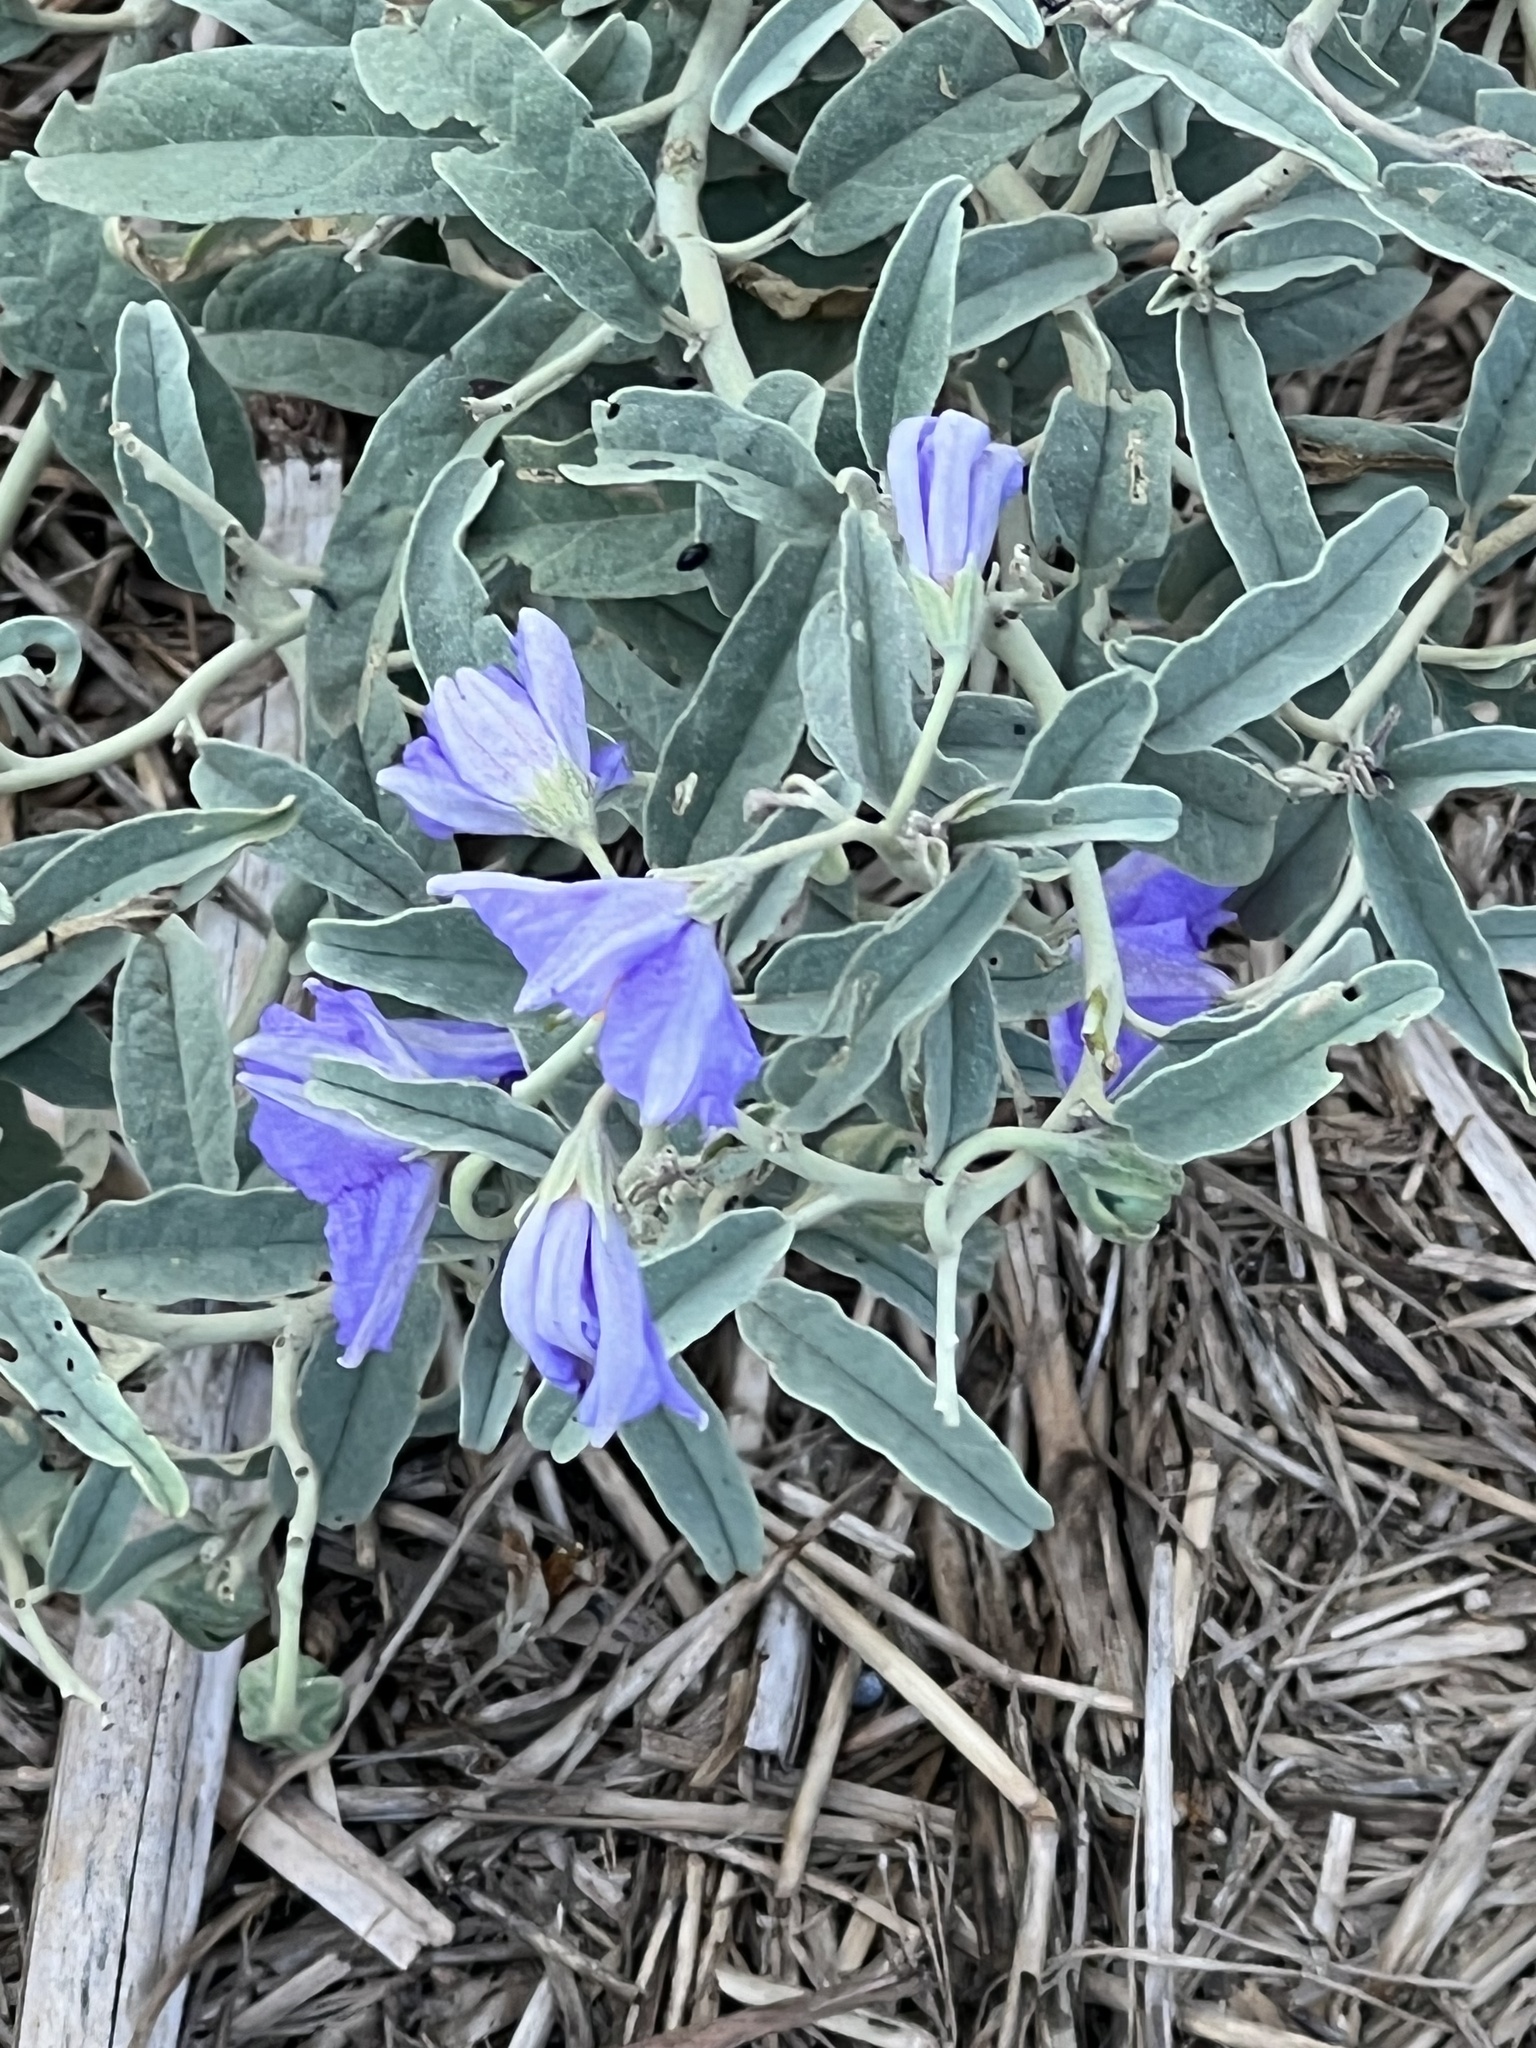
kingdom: Plantae
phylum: Tracheophyta
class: Magnoliopsida
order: Solanales
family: Solanaceae
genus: Solanum
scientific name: Solanum elaeagnifolium
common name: Silverleaf nightshade
